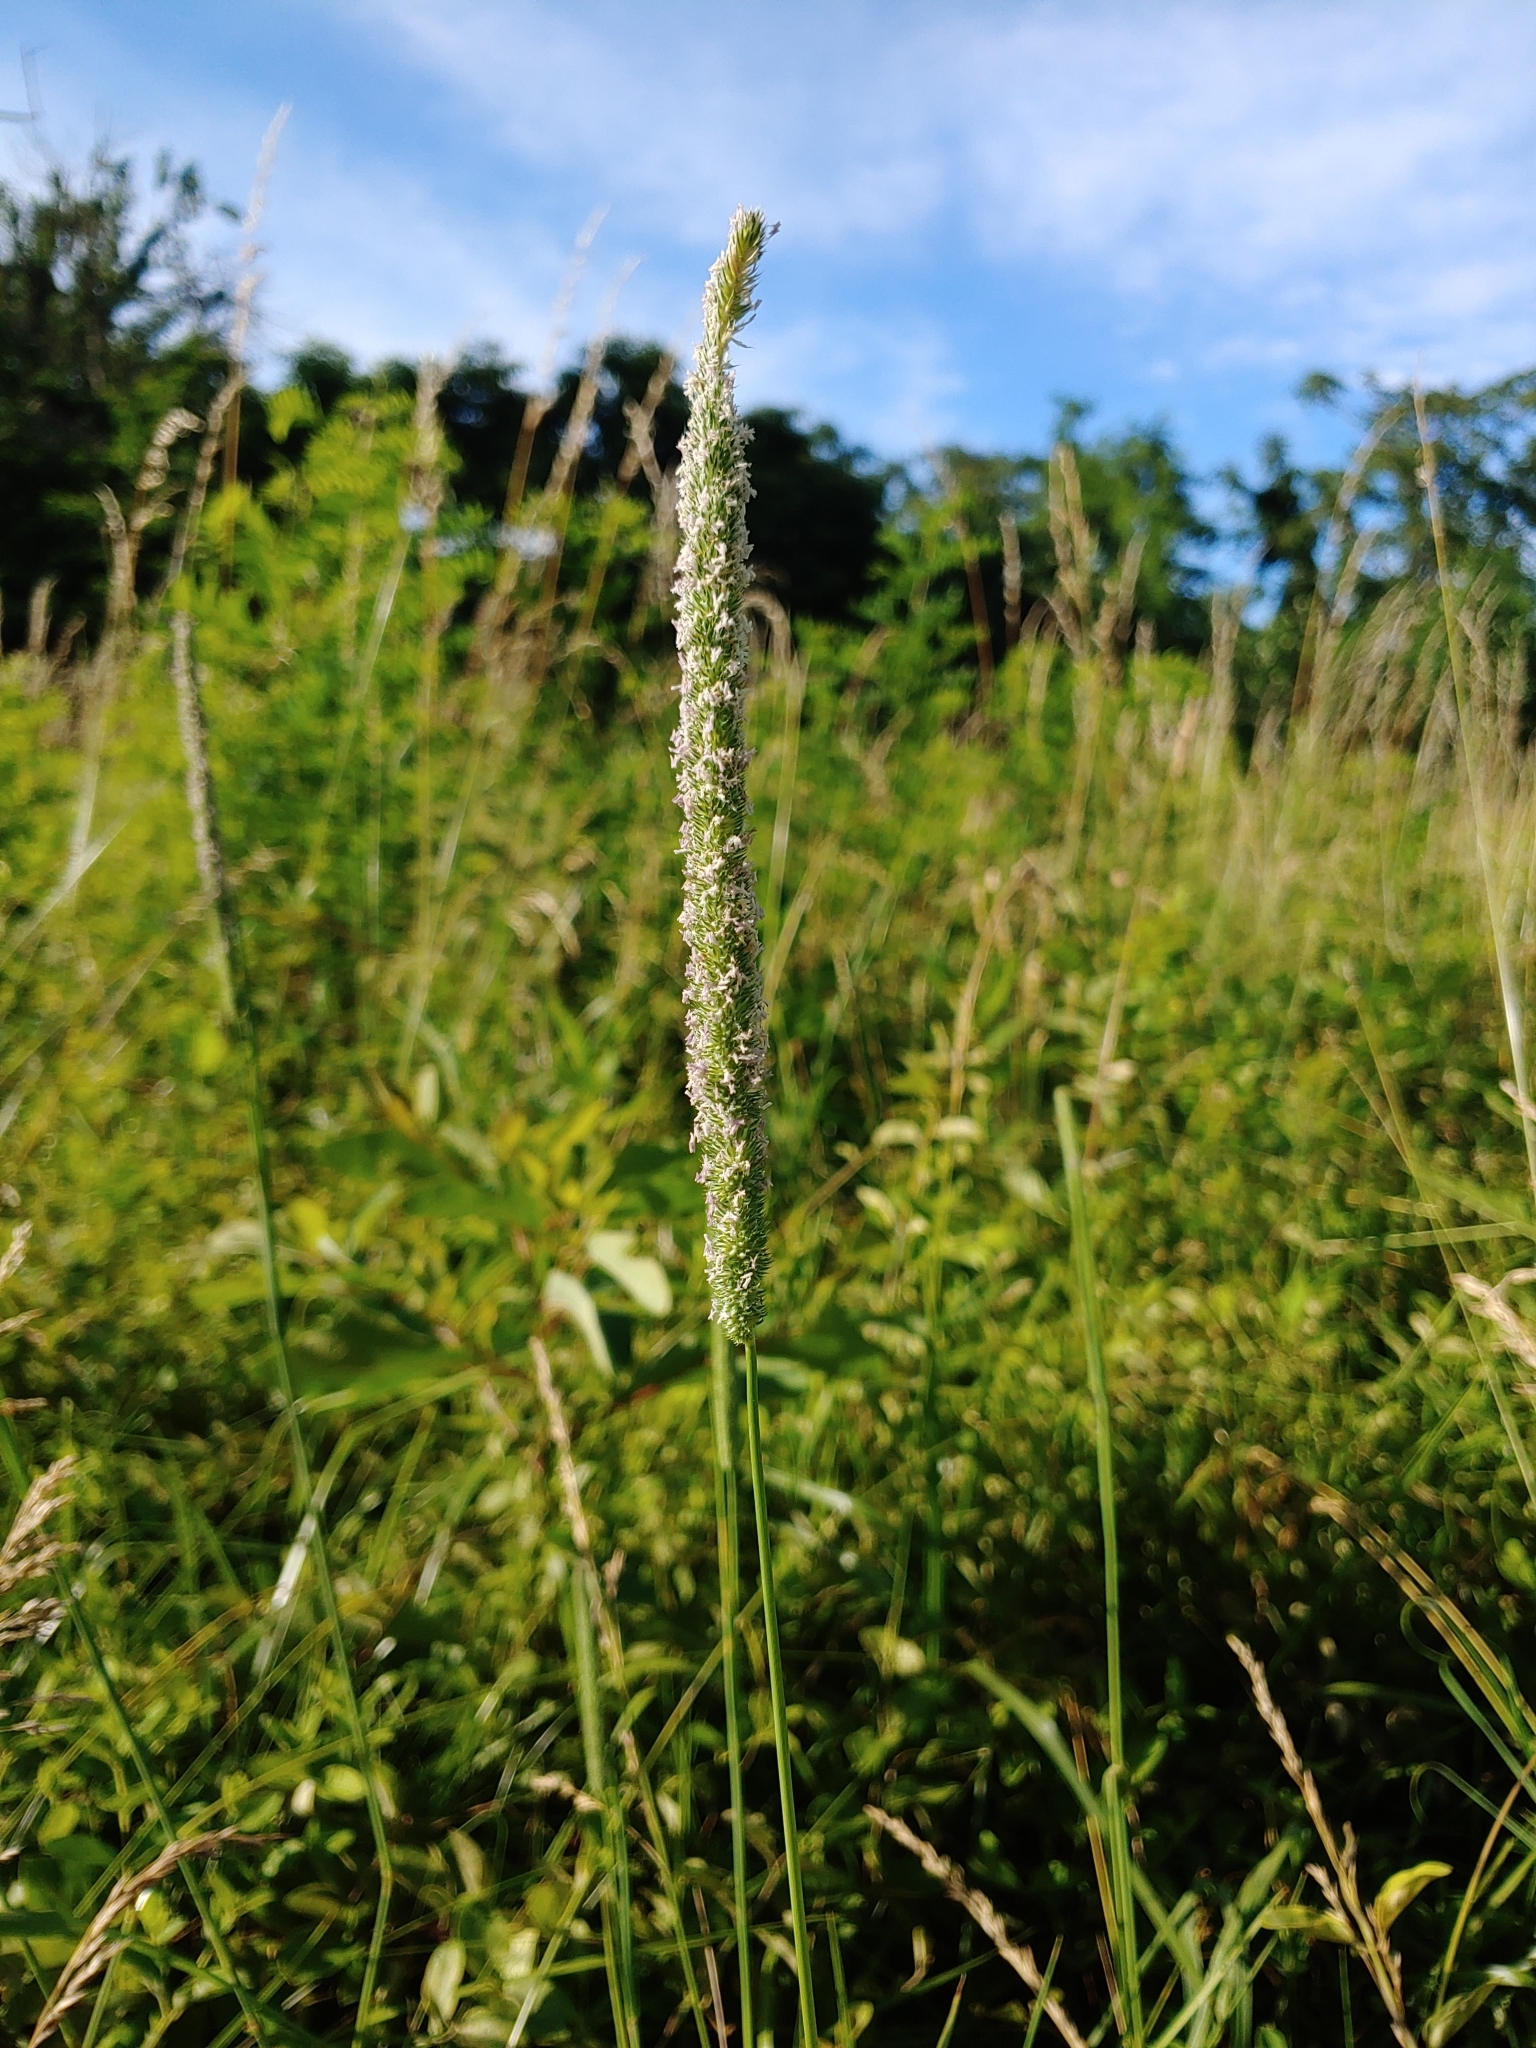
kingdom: Plantae
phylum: Tracheophyta
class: Liliopsida
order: Poales
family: Poaceae
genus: Phleum
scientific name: Phleum pratense
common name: Timothy grass
